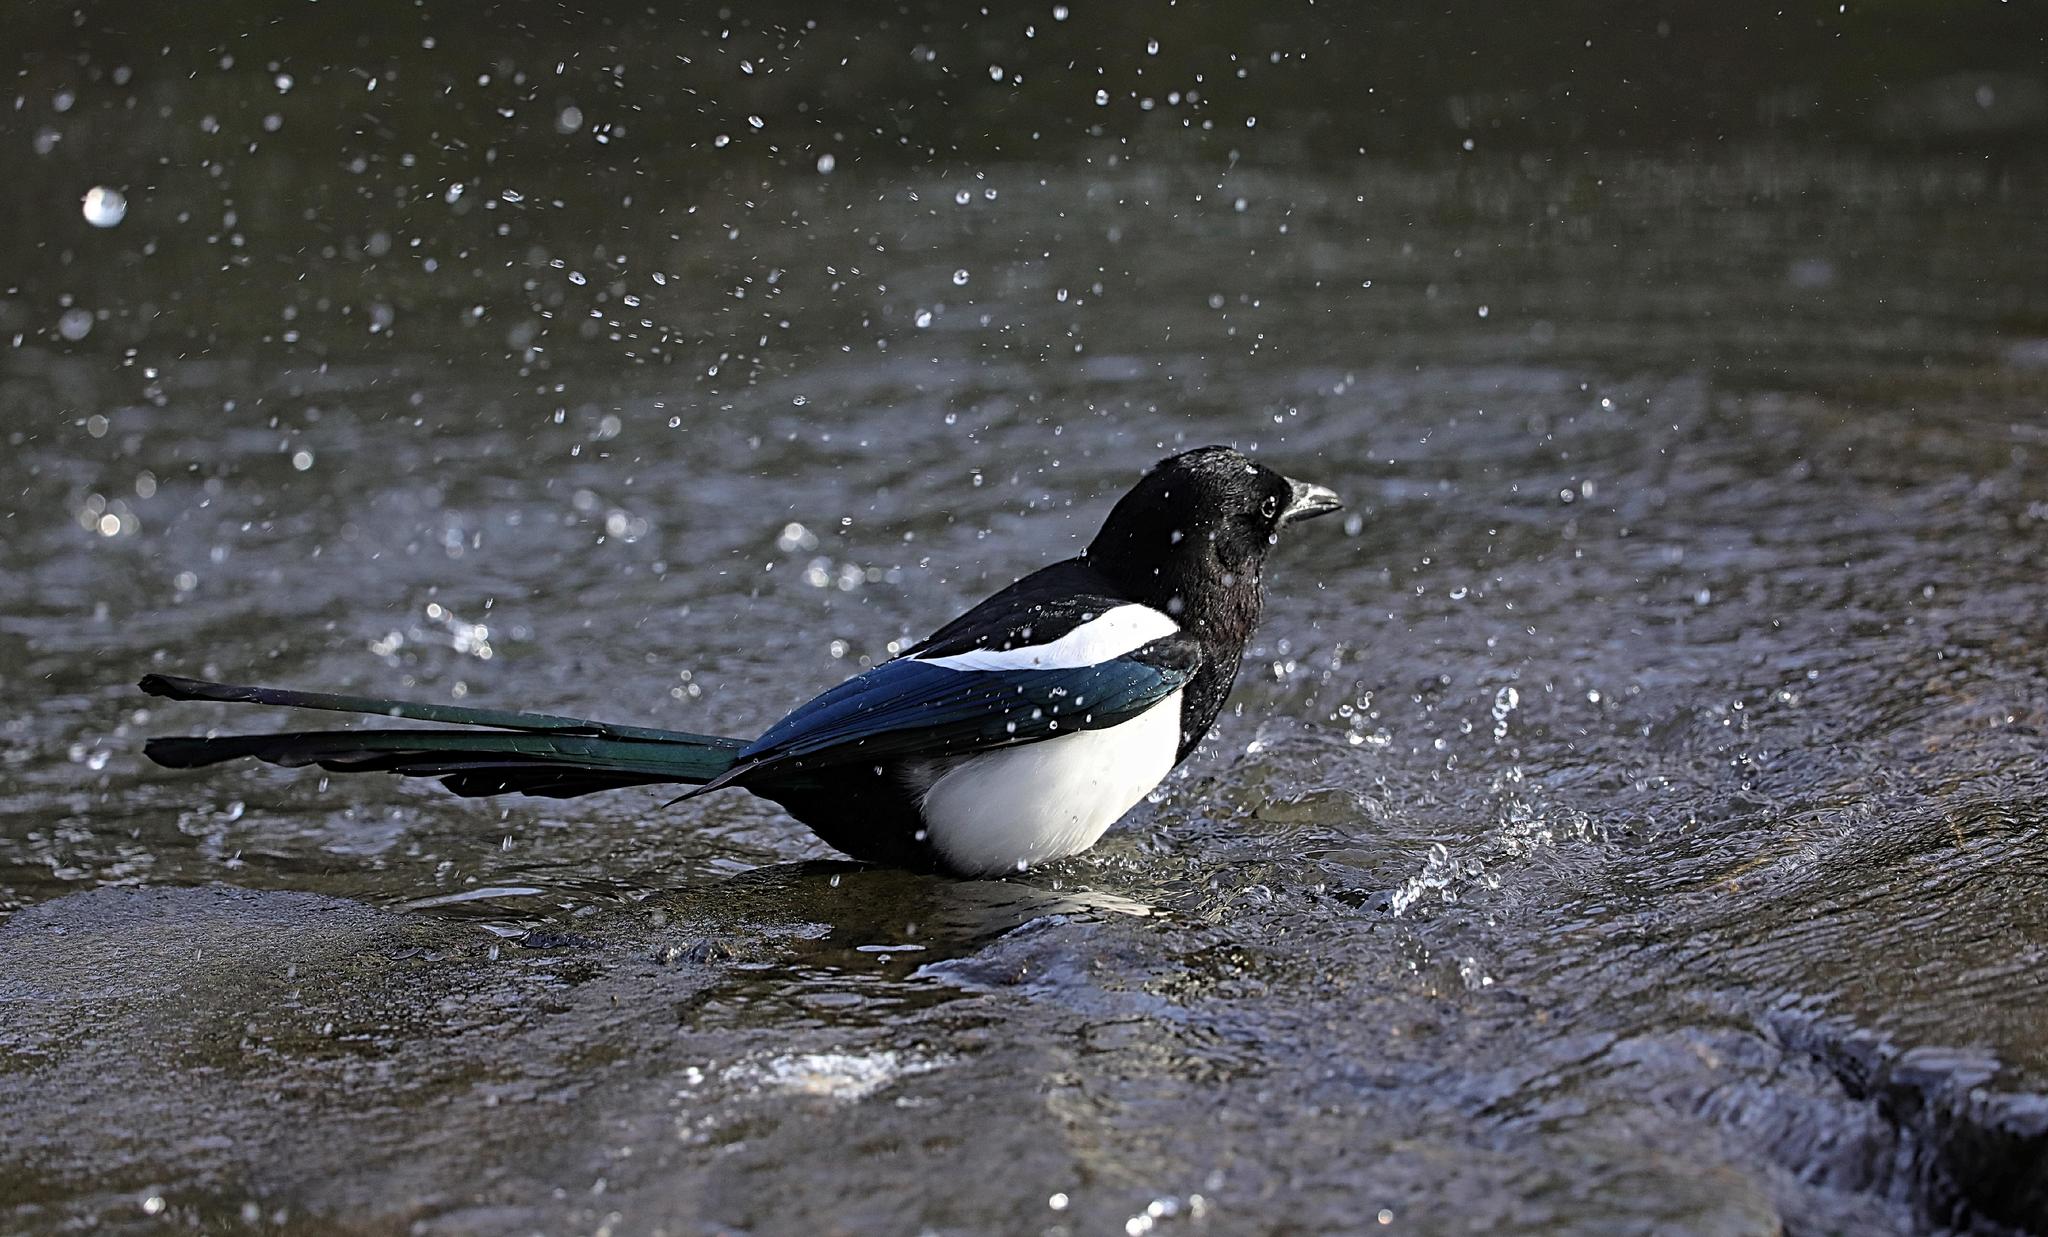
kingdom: Animalia
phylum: Chordata
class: Aves
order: Passeriformes
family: Corvidae
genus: Pica
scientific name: Pica pica
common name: Eurasian magpie
